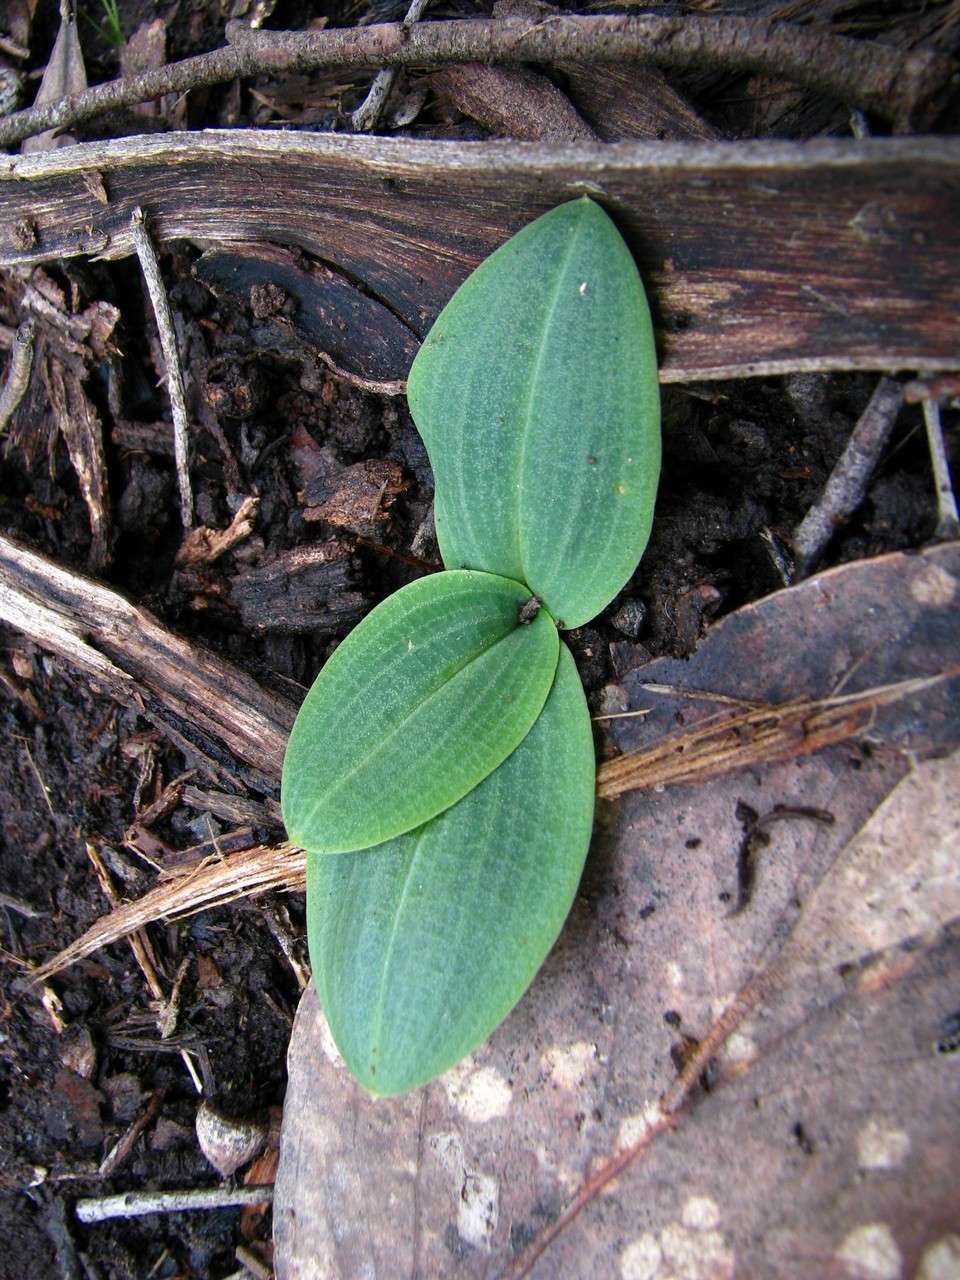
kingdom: Plantae
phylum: Tracheophyta
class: Liliopsida
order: Asparagales
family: Orchidaceae
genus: Chiloglottis
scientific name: Chiloglottis valida
